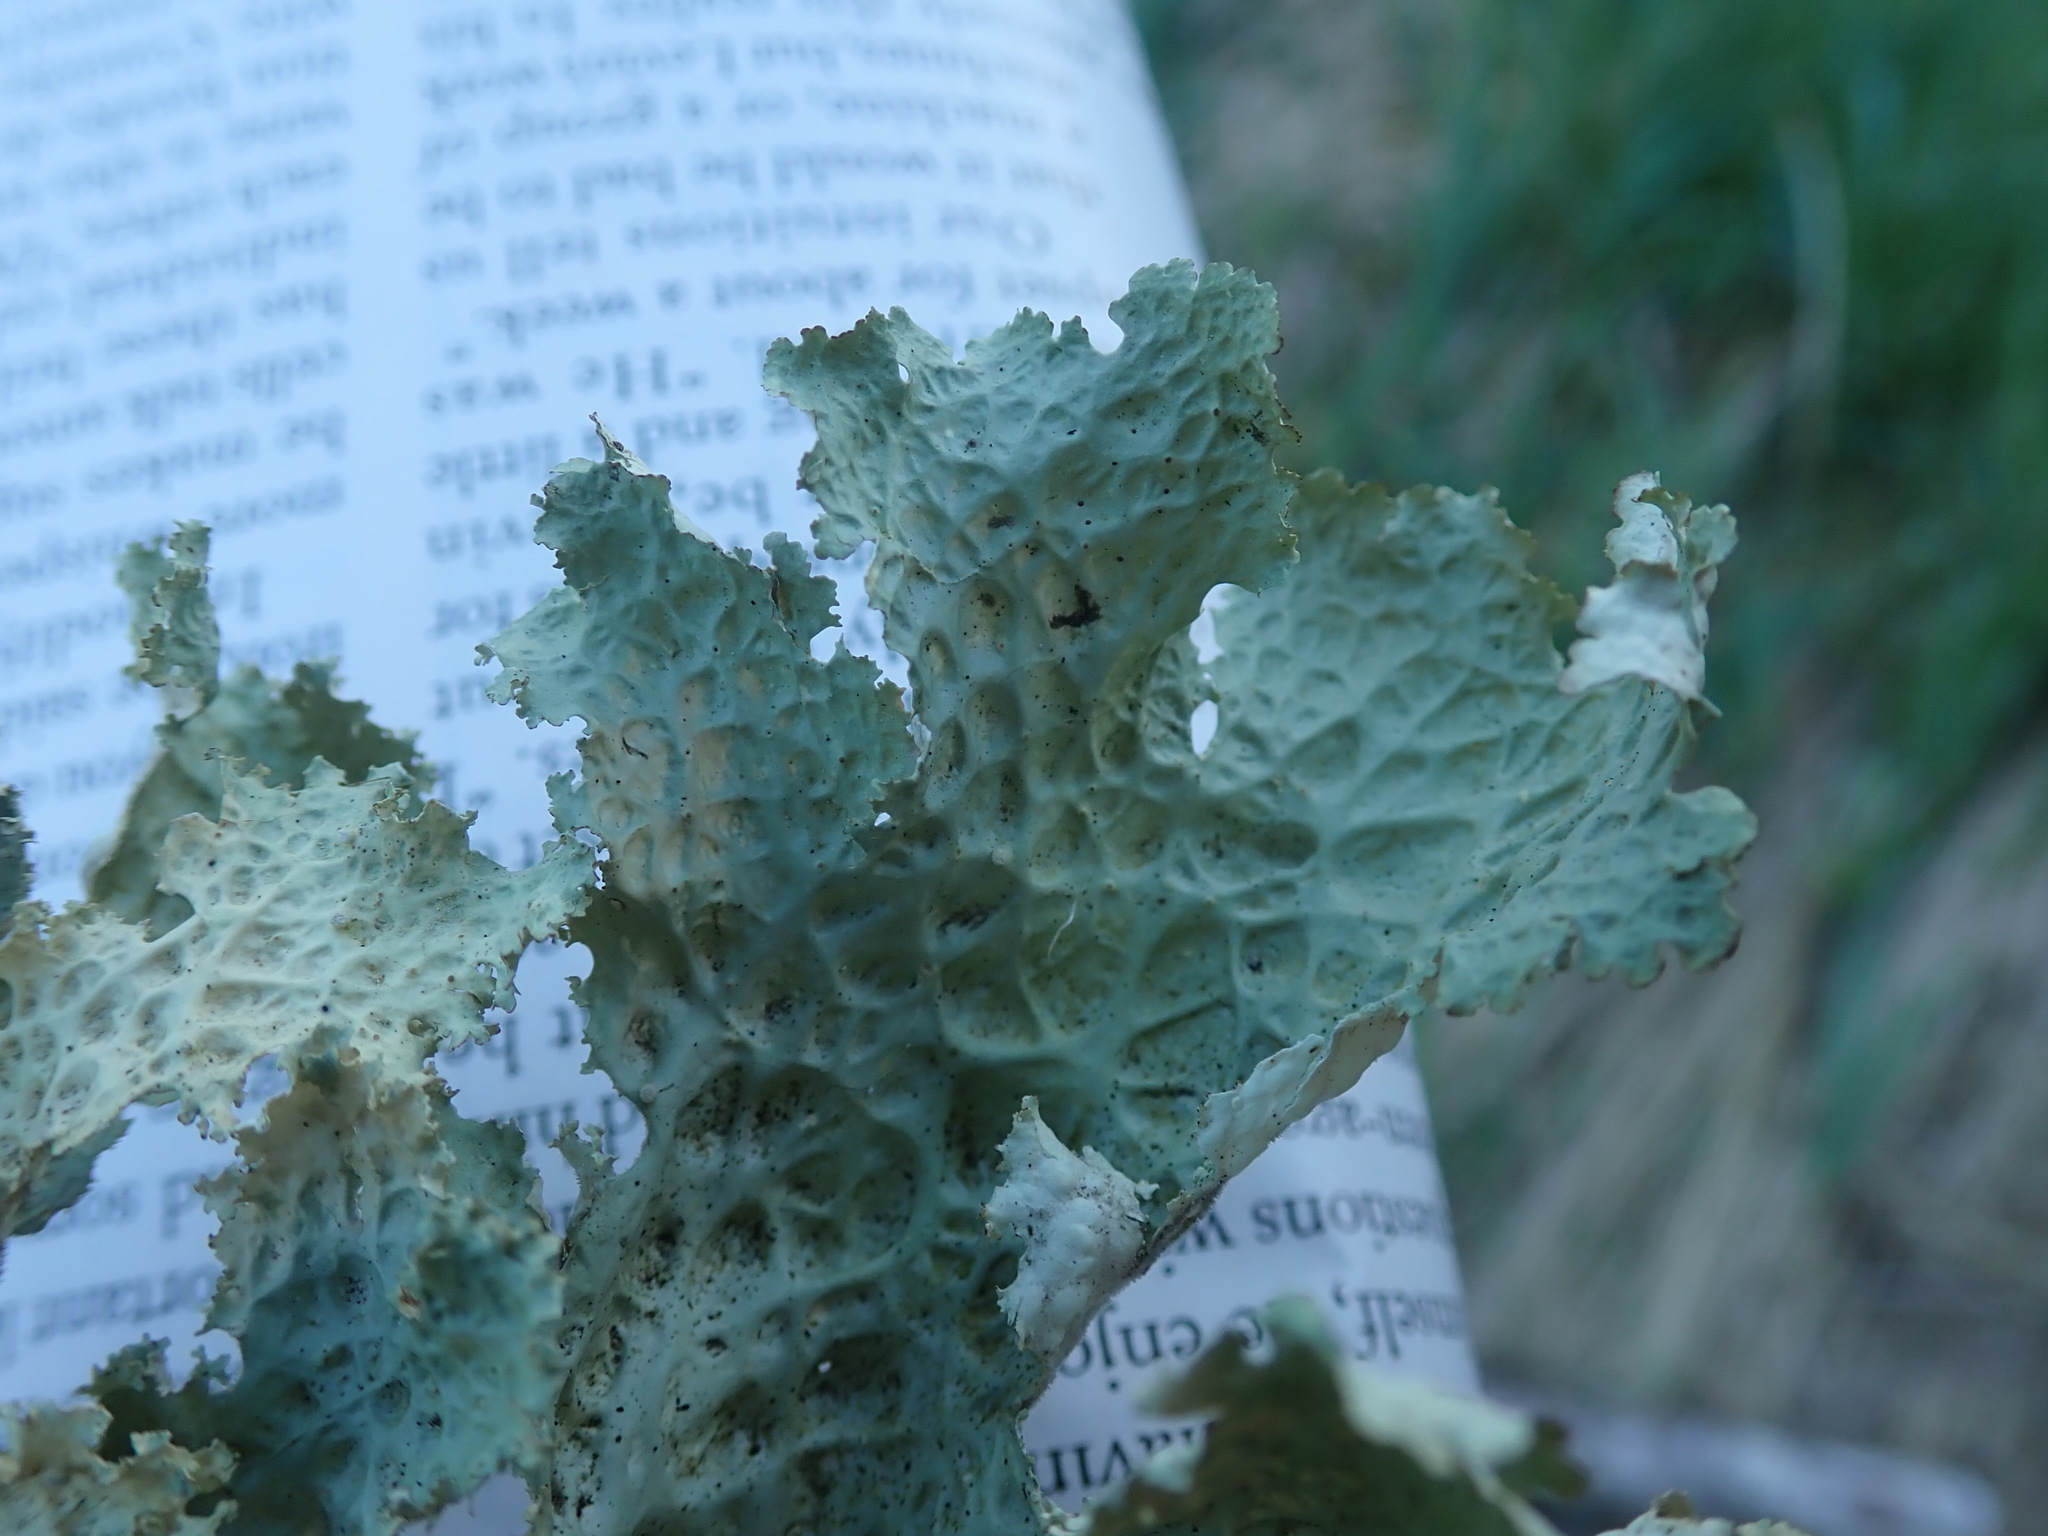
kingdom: Fungi
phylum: Ascomycota
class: Lecanoromycetes
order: Peltigerales
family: Lobariaceae
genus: Lobaria
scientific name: Lobaria oregana
